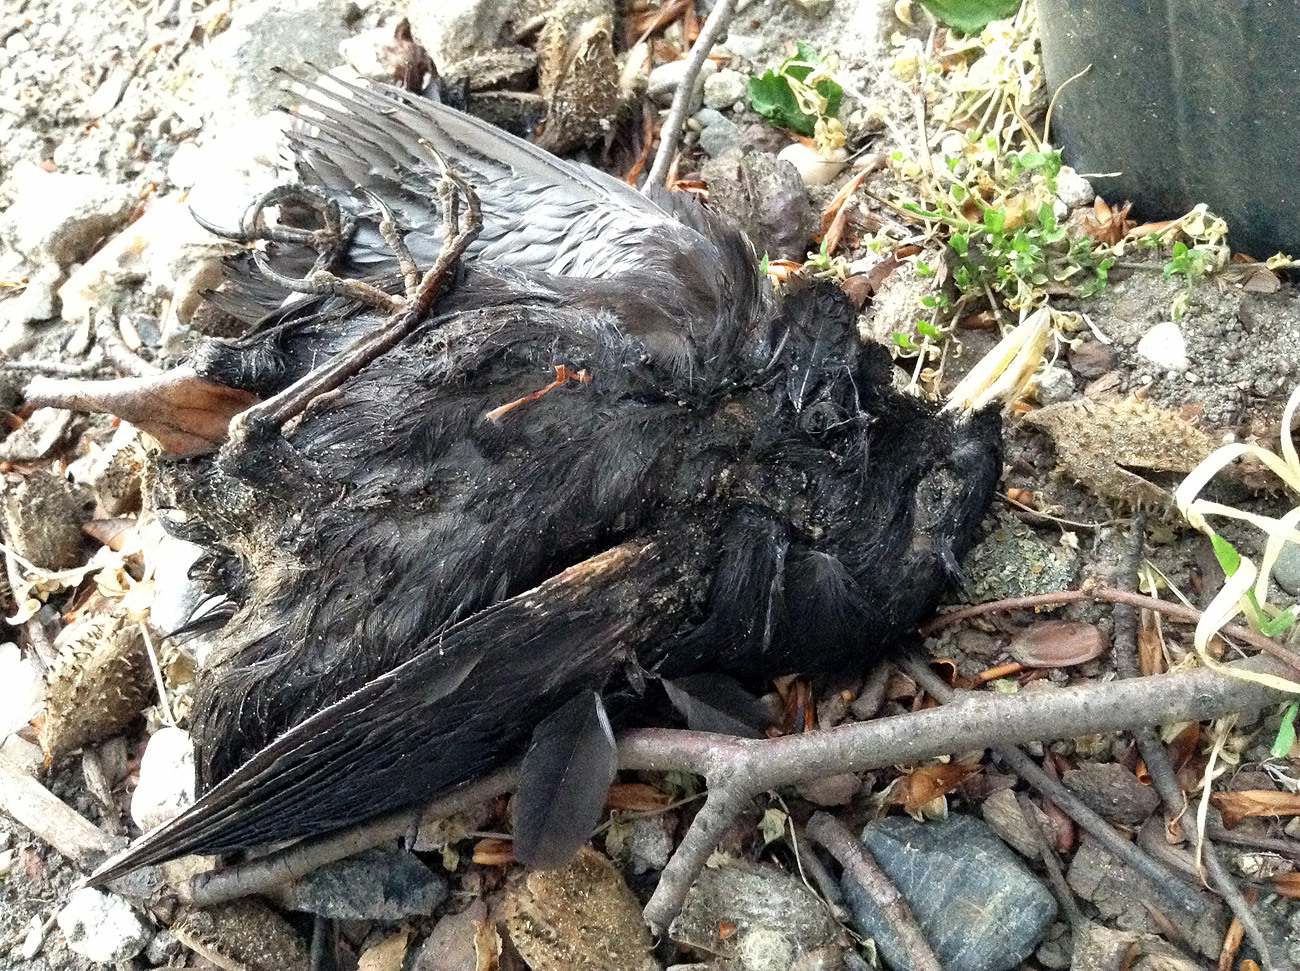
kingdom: Animalia
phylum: Chordata
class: Aves
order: Passeriformes
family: Turdidae
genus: Turdus
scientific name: Turdus merula
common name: Common blackbird
